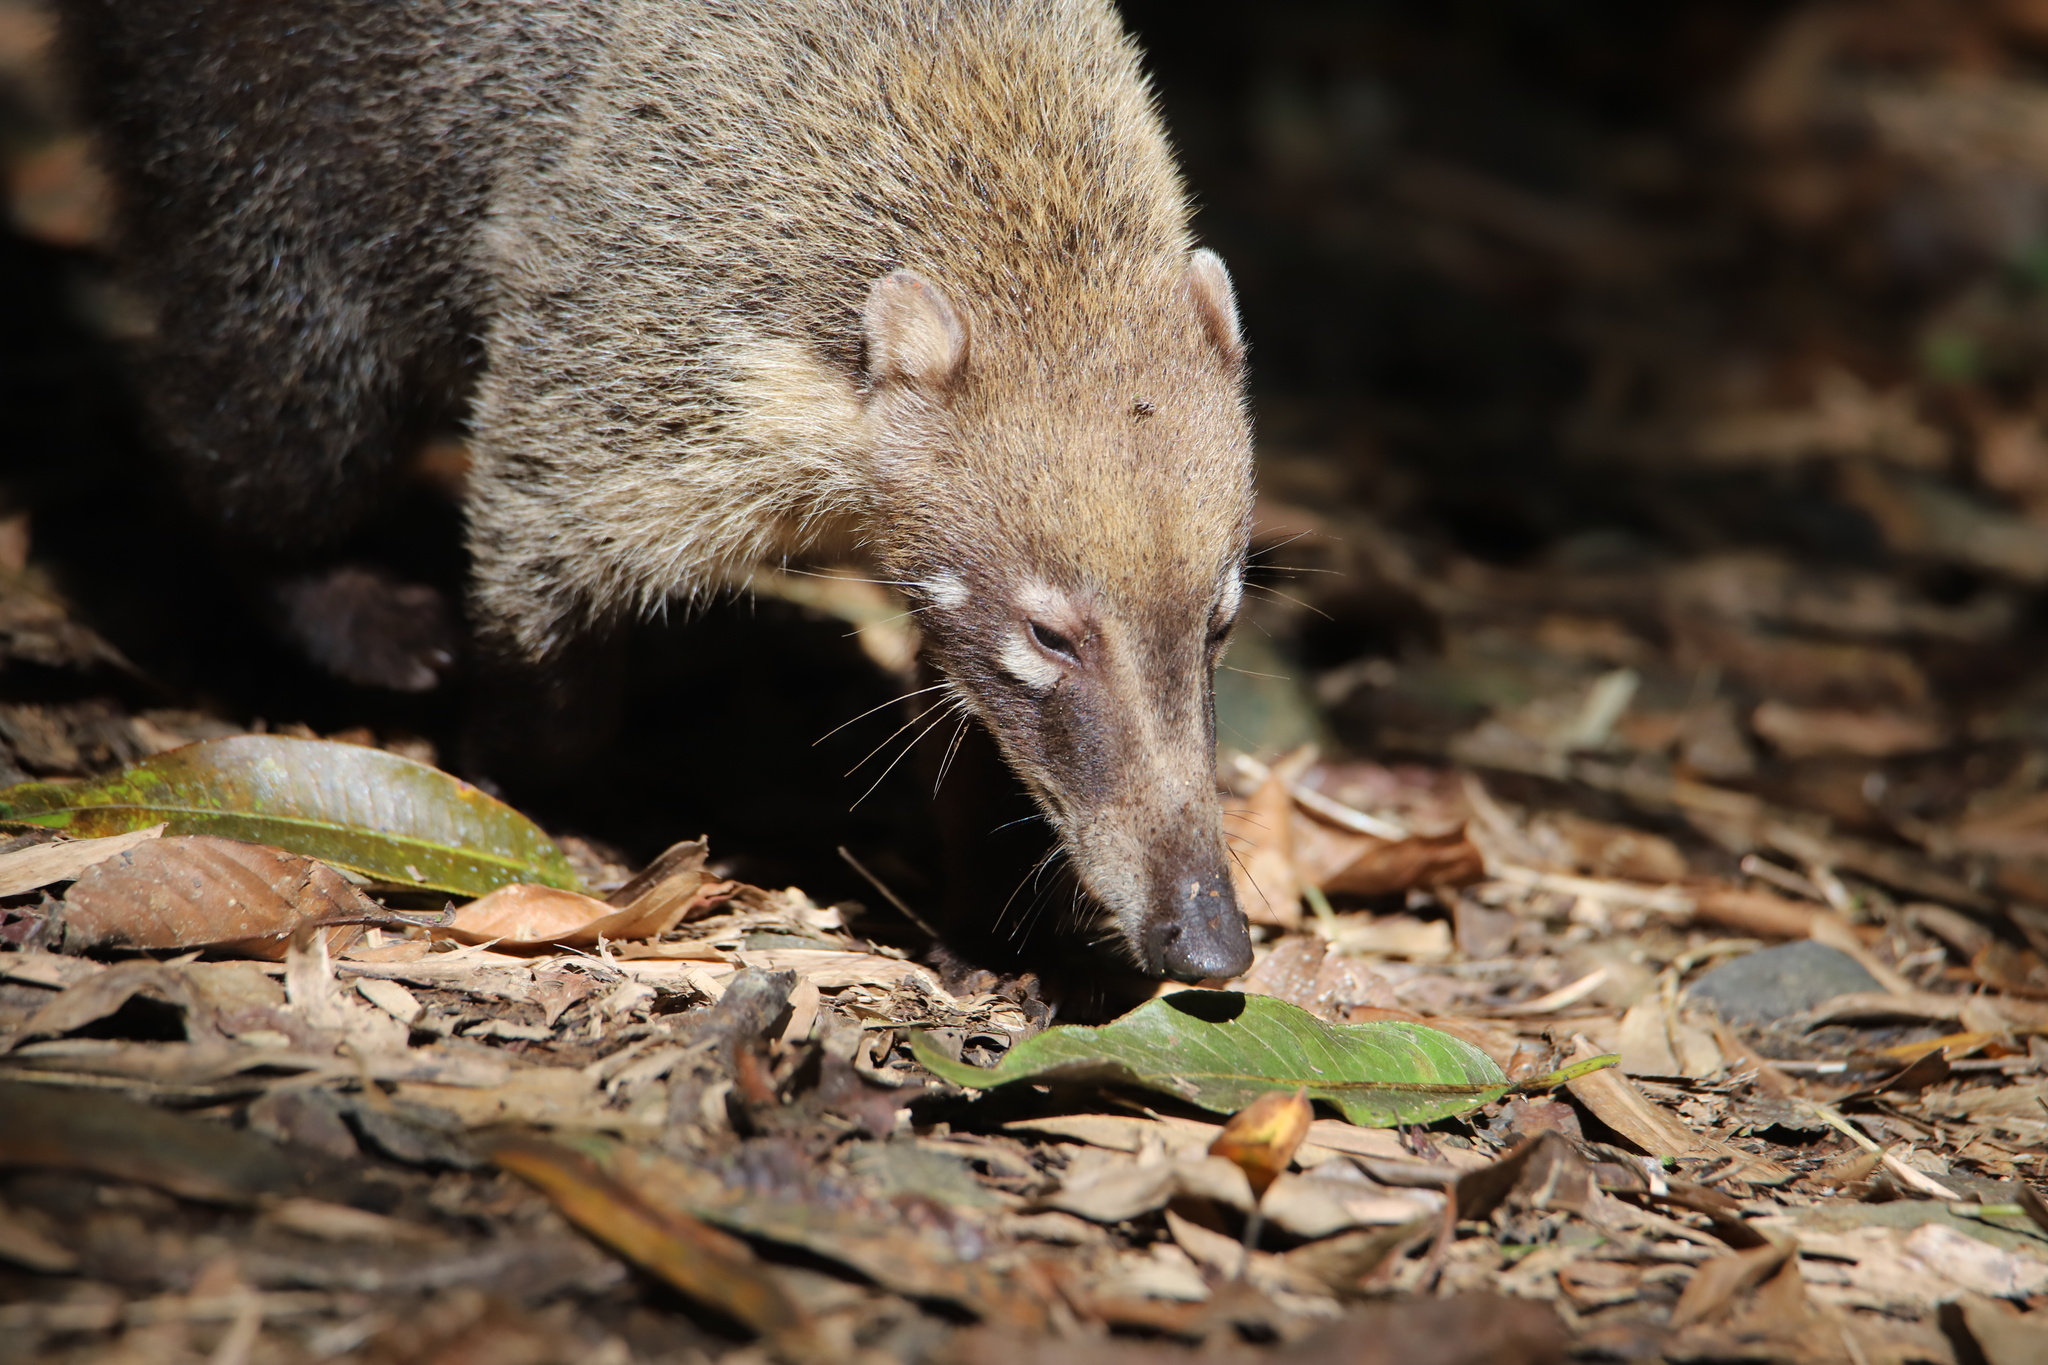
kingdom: Animalia
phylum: Chordata
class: Mammalia
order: Carnivora
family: Procyonidae
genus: Nasua
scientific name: Nasua narica
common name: White-nosed coati
